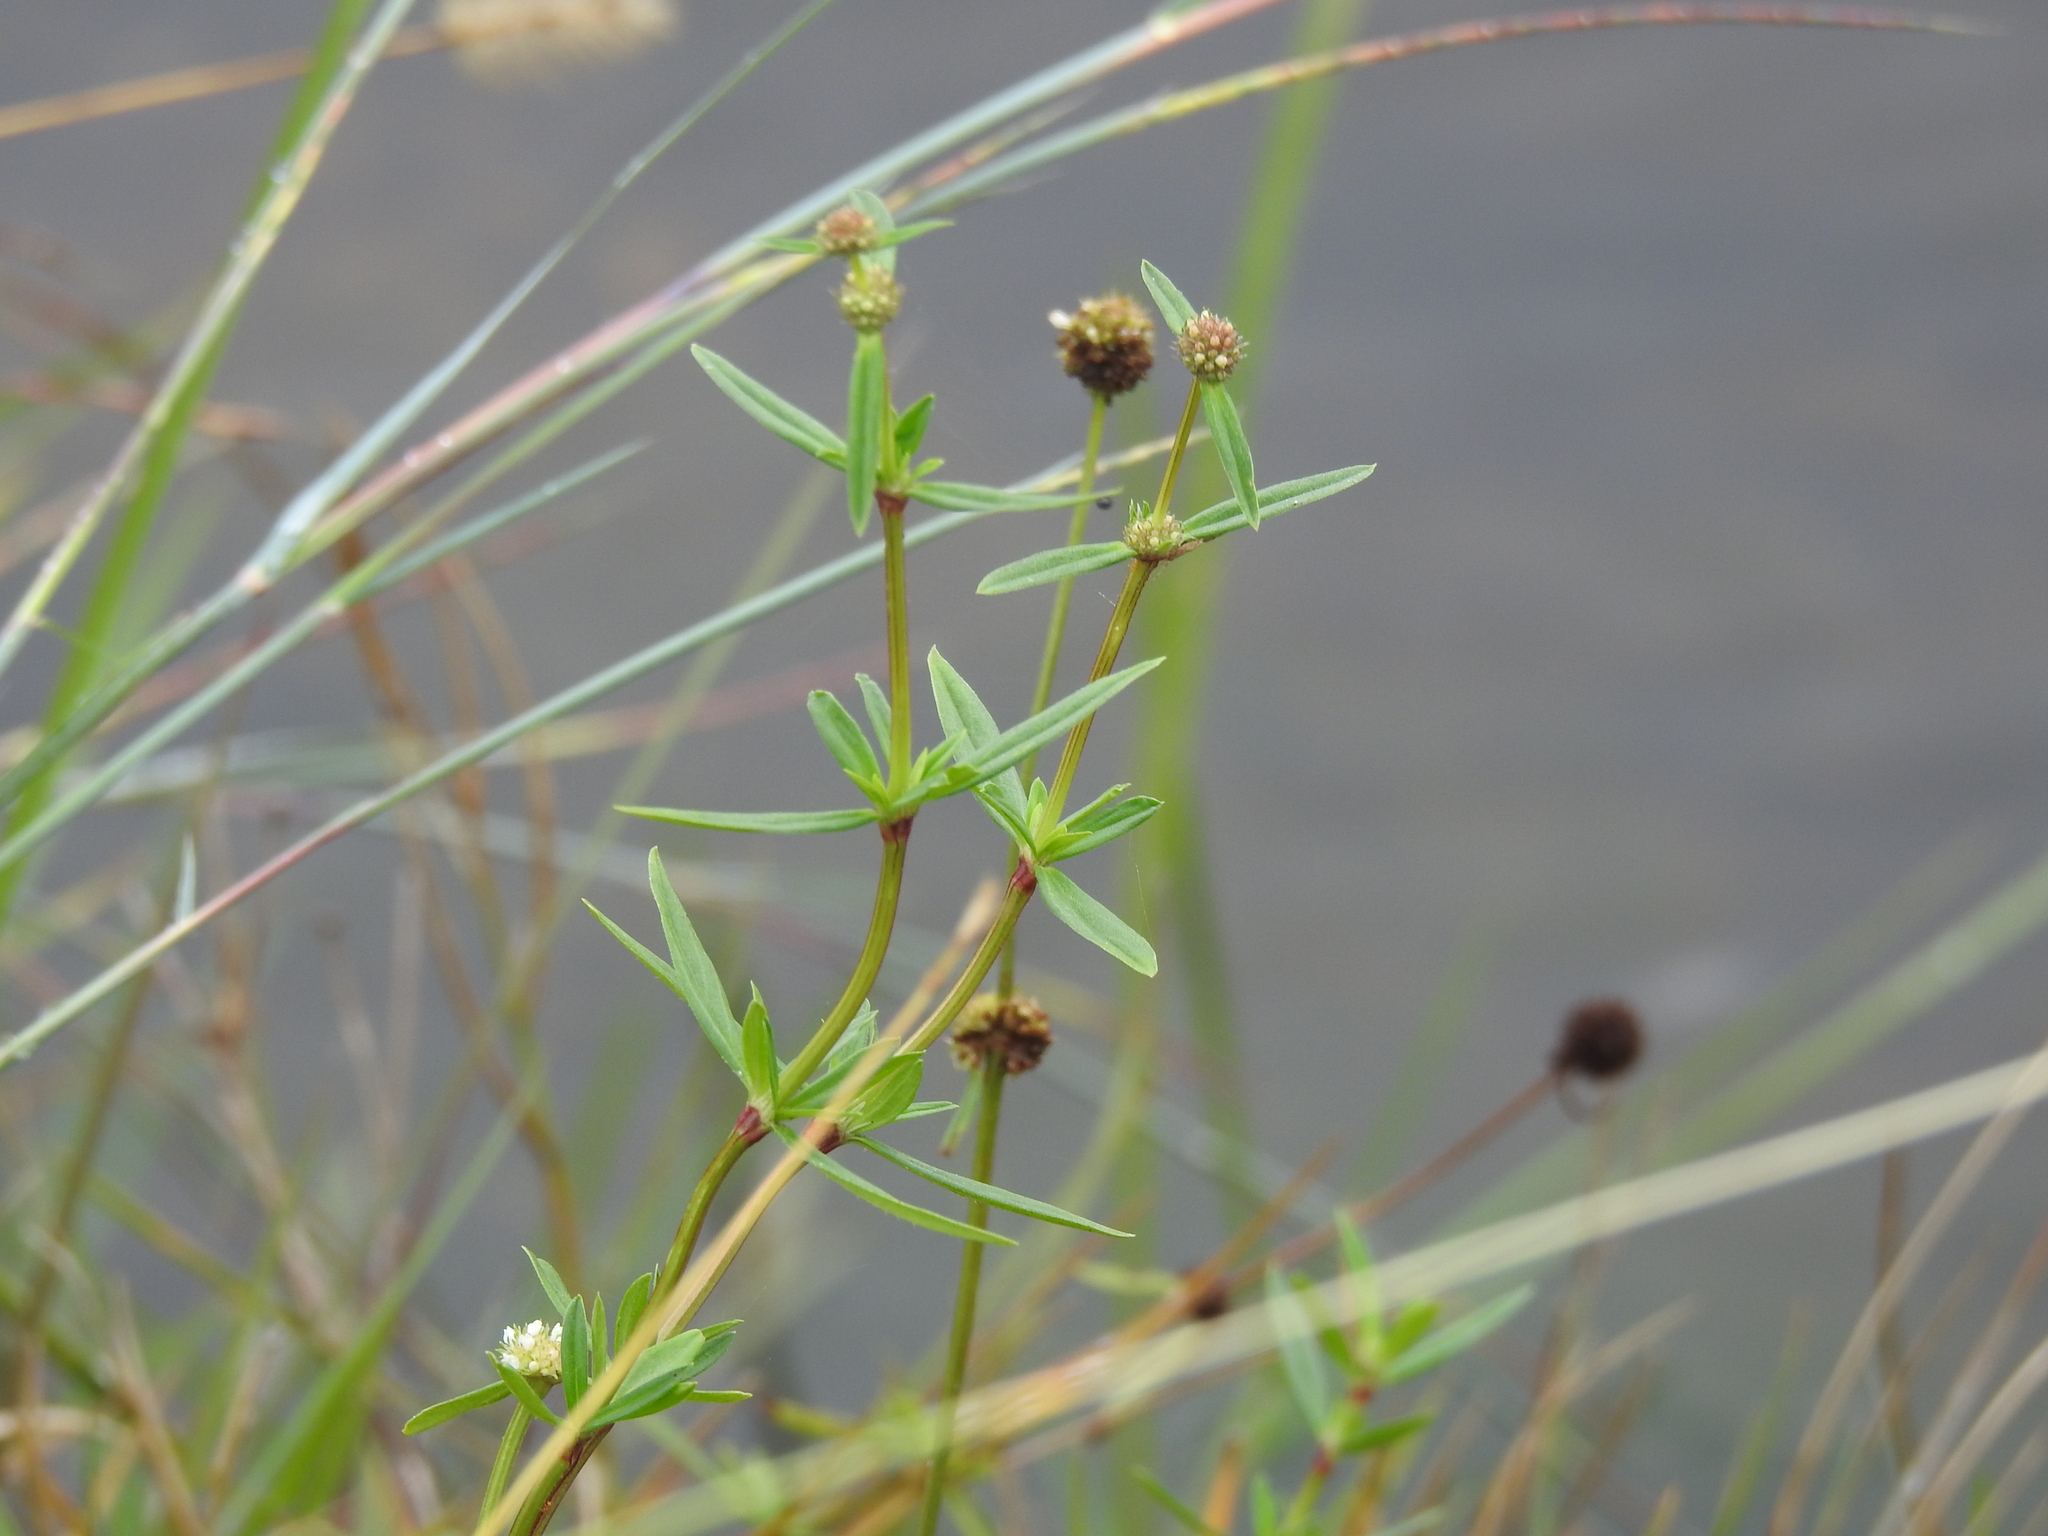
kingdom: Plantae
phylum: Tracheophyta
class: Magnoliopsida
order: Gentianales
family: Rubiaceae
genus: Spermacoce
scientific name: Spermacoce verticillata
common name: Shrubby false buttonweed
